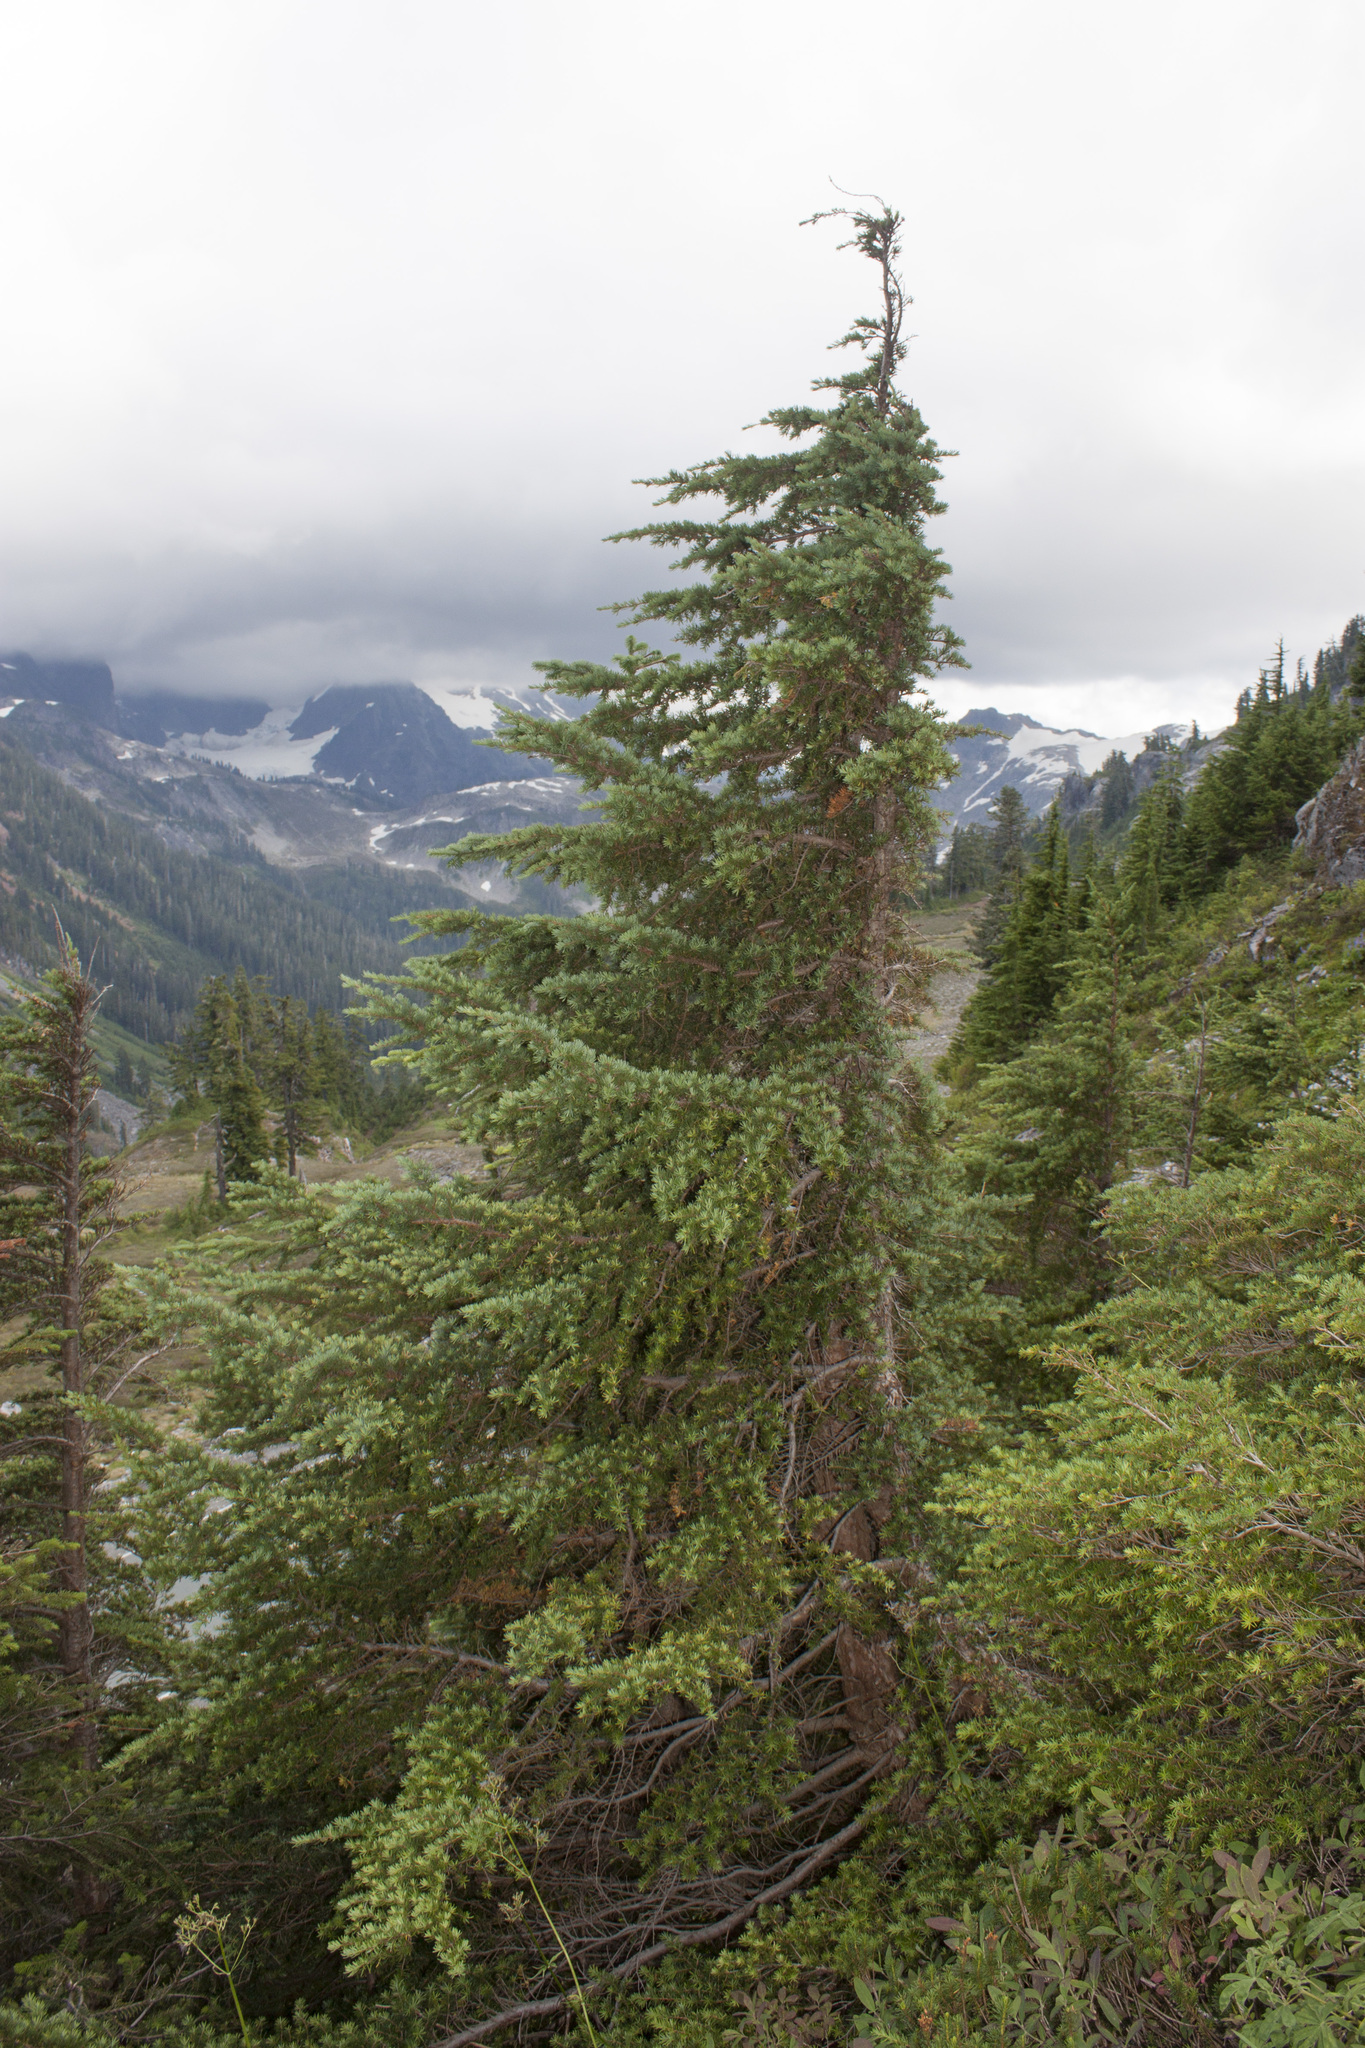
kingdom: Plantae
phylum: Tracheophyta
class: Pinopsida
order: Pinales
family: Pinaceae
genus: Tsuga
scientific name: Tsuga mertensiana
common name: Mountain hemlock
